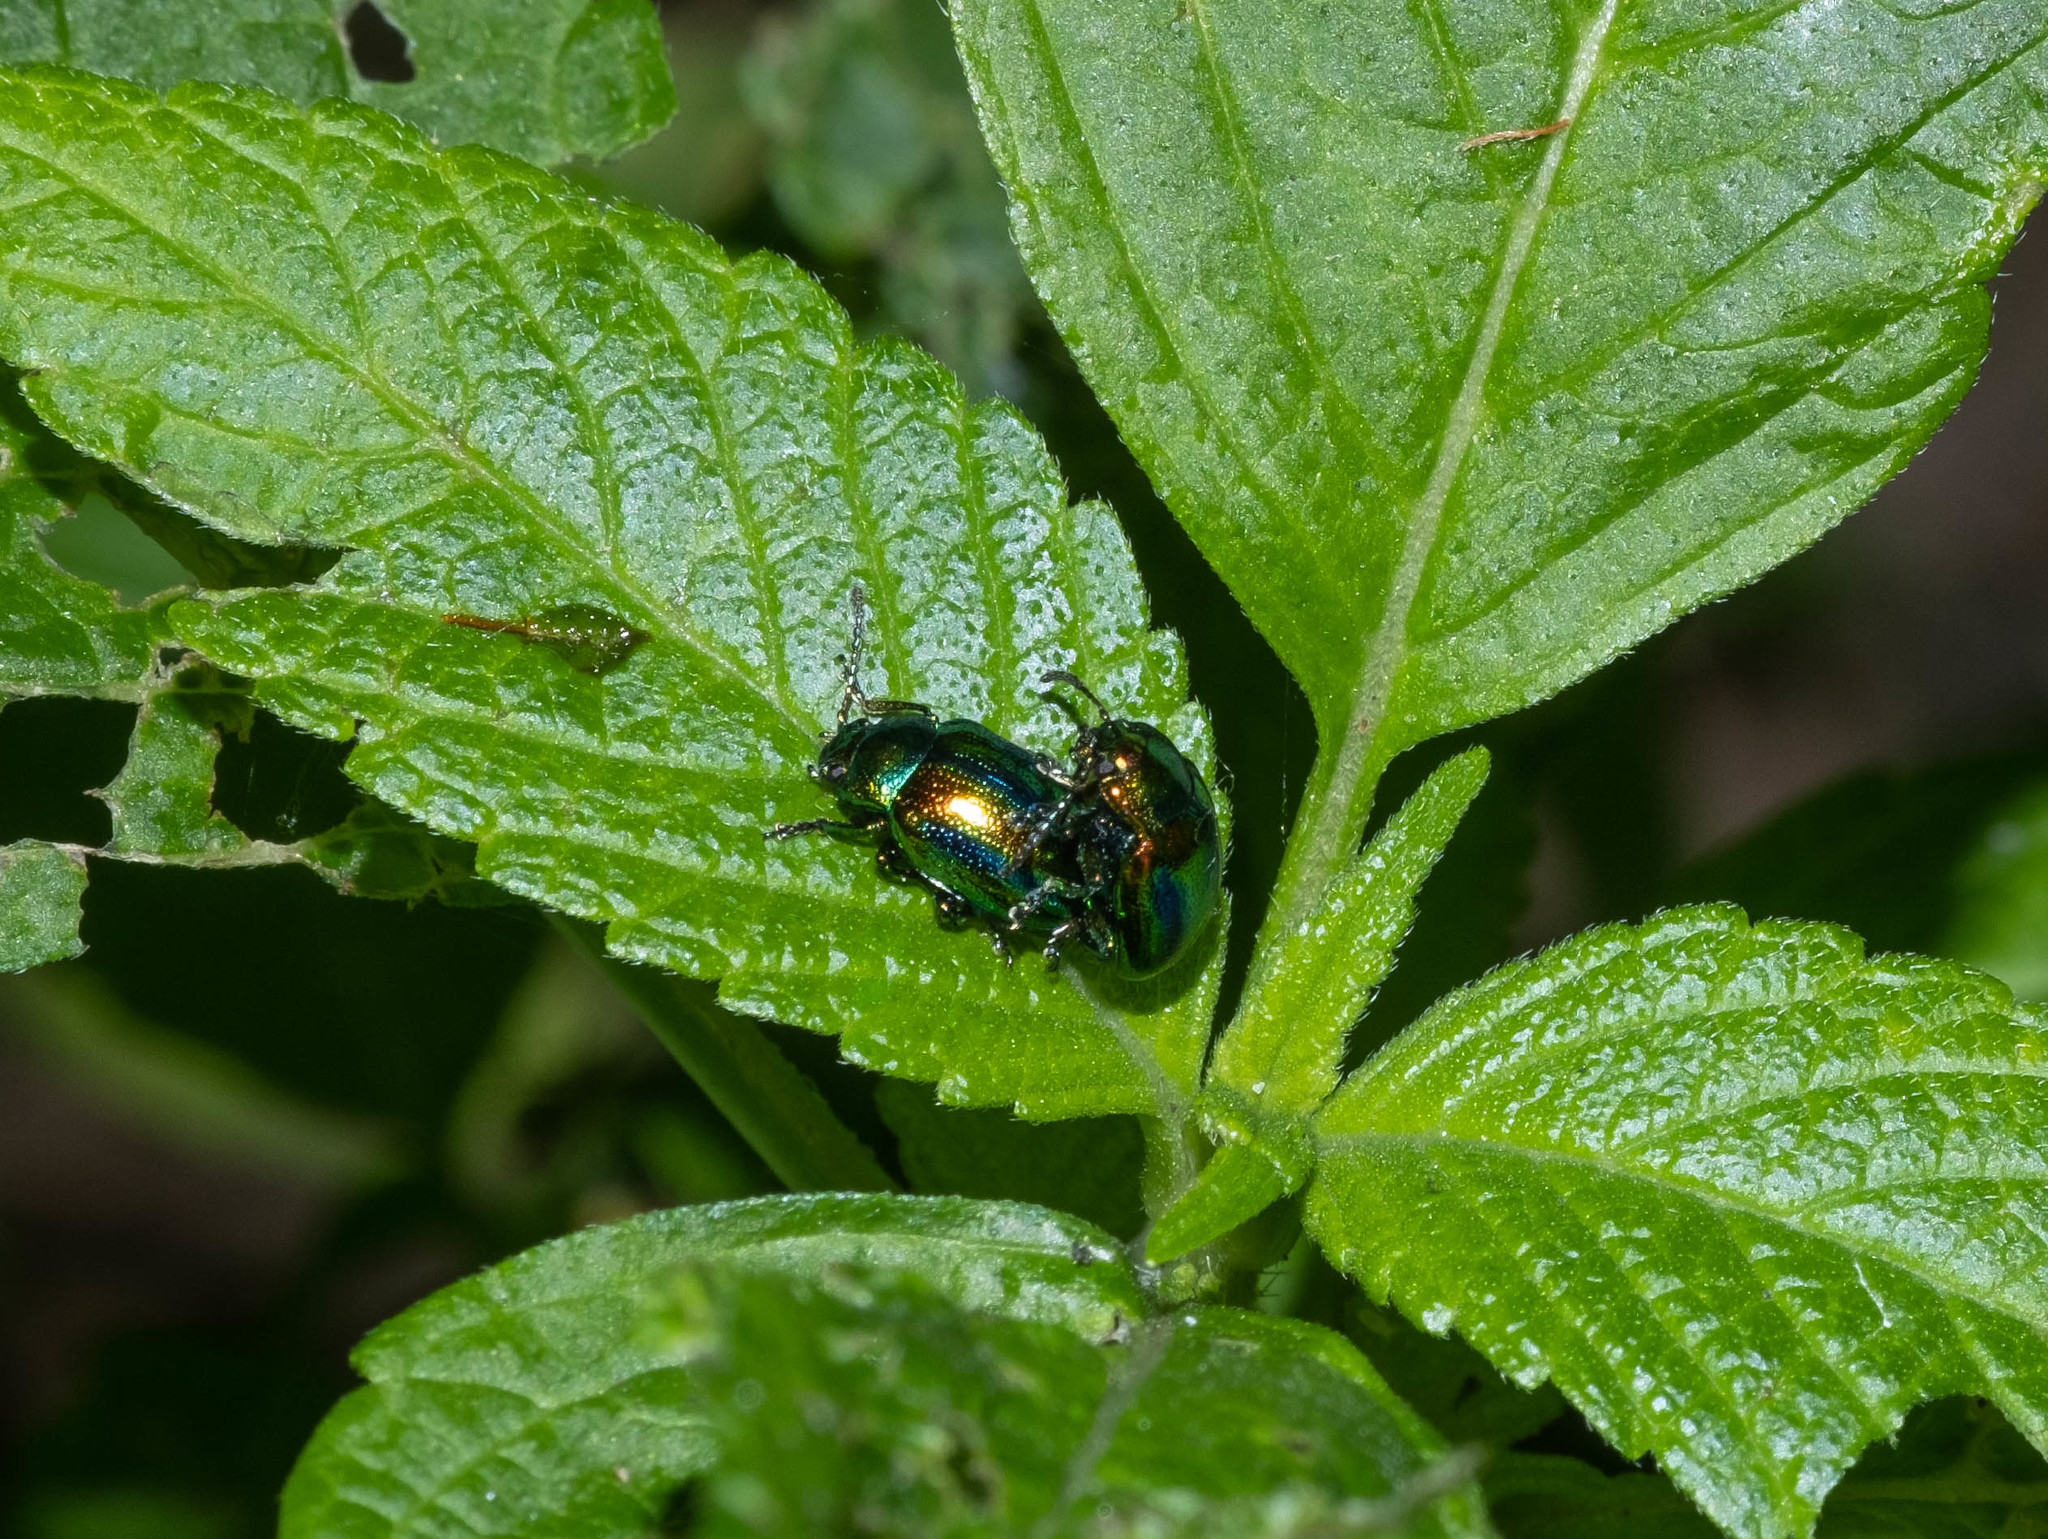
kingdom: Animalia
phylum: Arthropoda
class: Insecta
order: Coleoptera
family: Chrysomelidae
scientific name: Chrysomelidae
